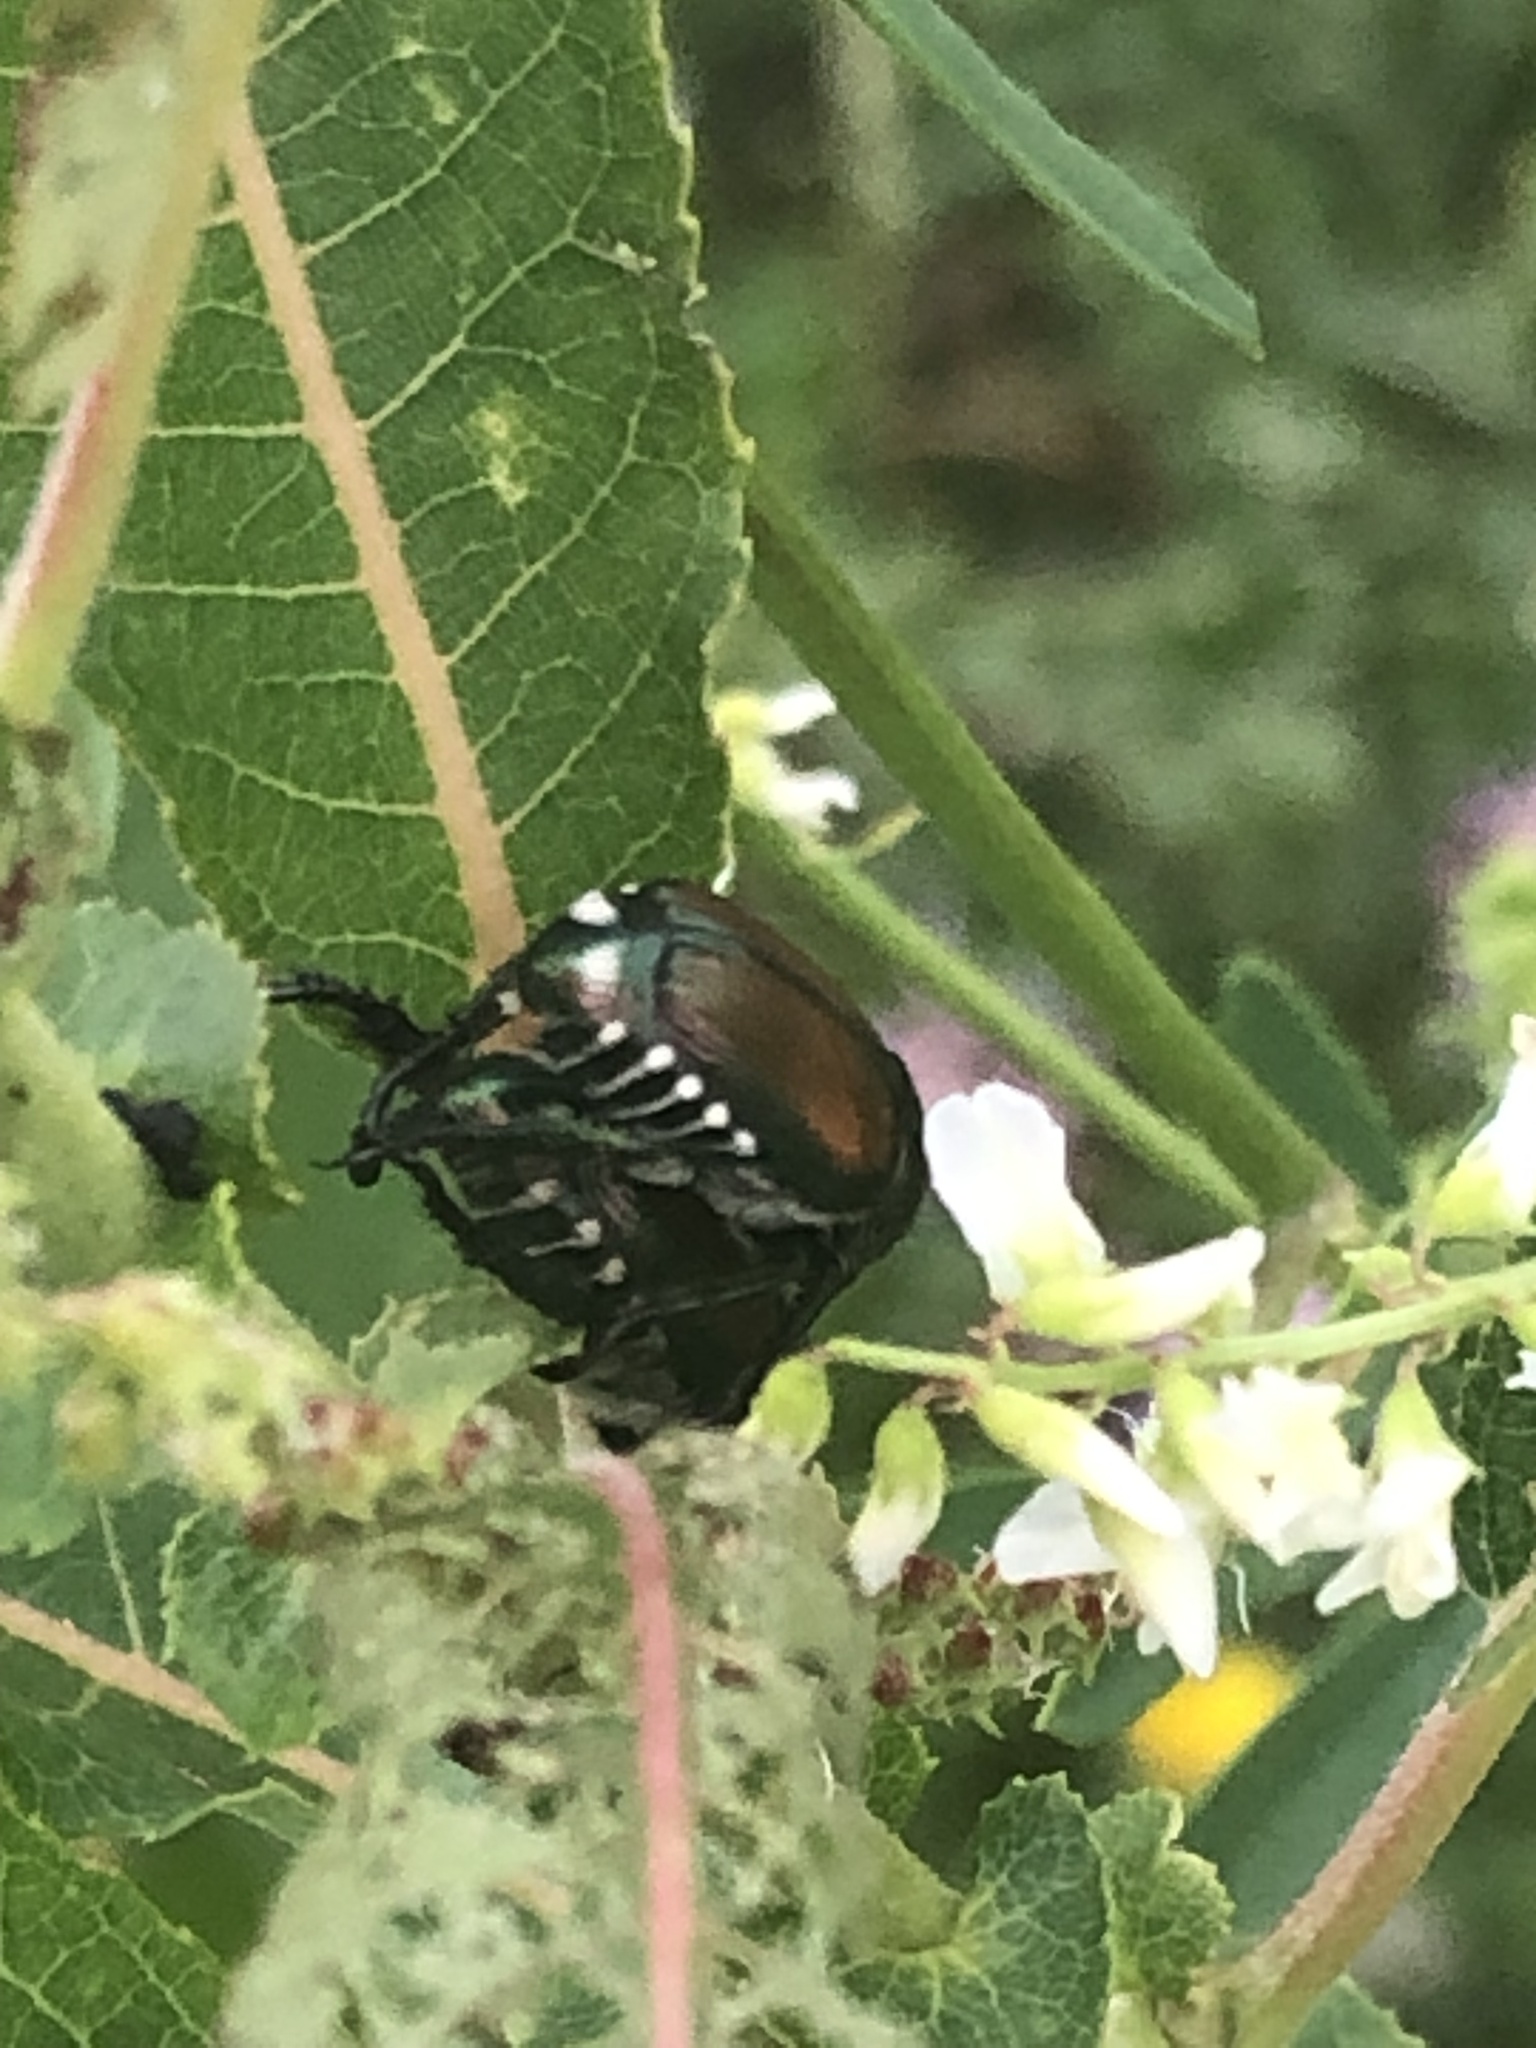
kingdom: Animalia
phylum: Arthropoda
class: Insecta
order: Coleoptera
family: Scarabaeidae
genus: Popillia
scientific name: Popillia japonica
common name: Japanese beetle
